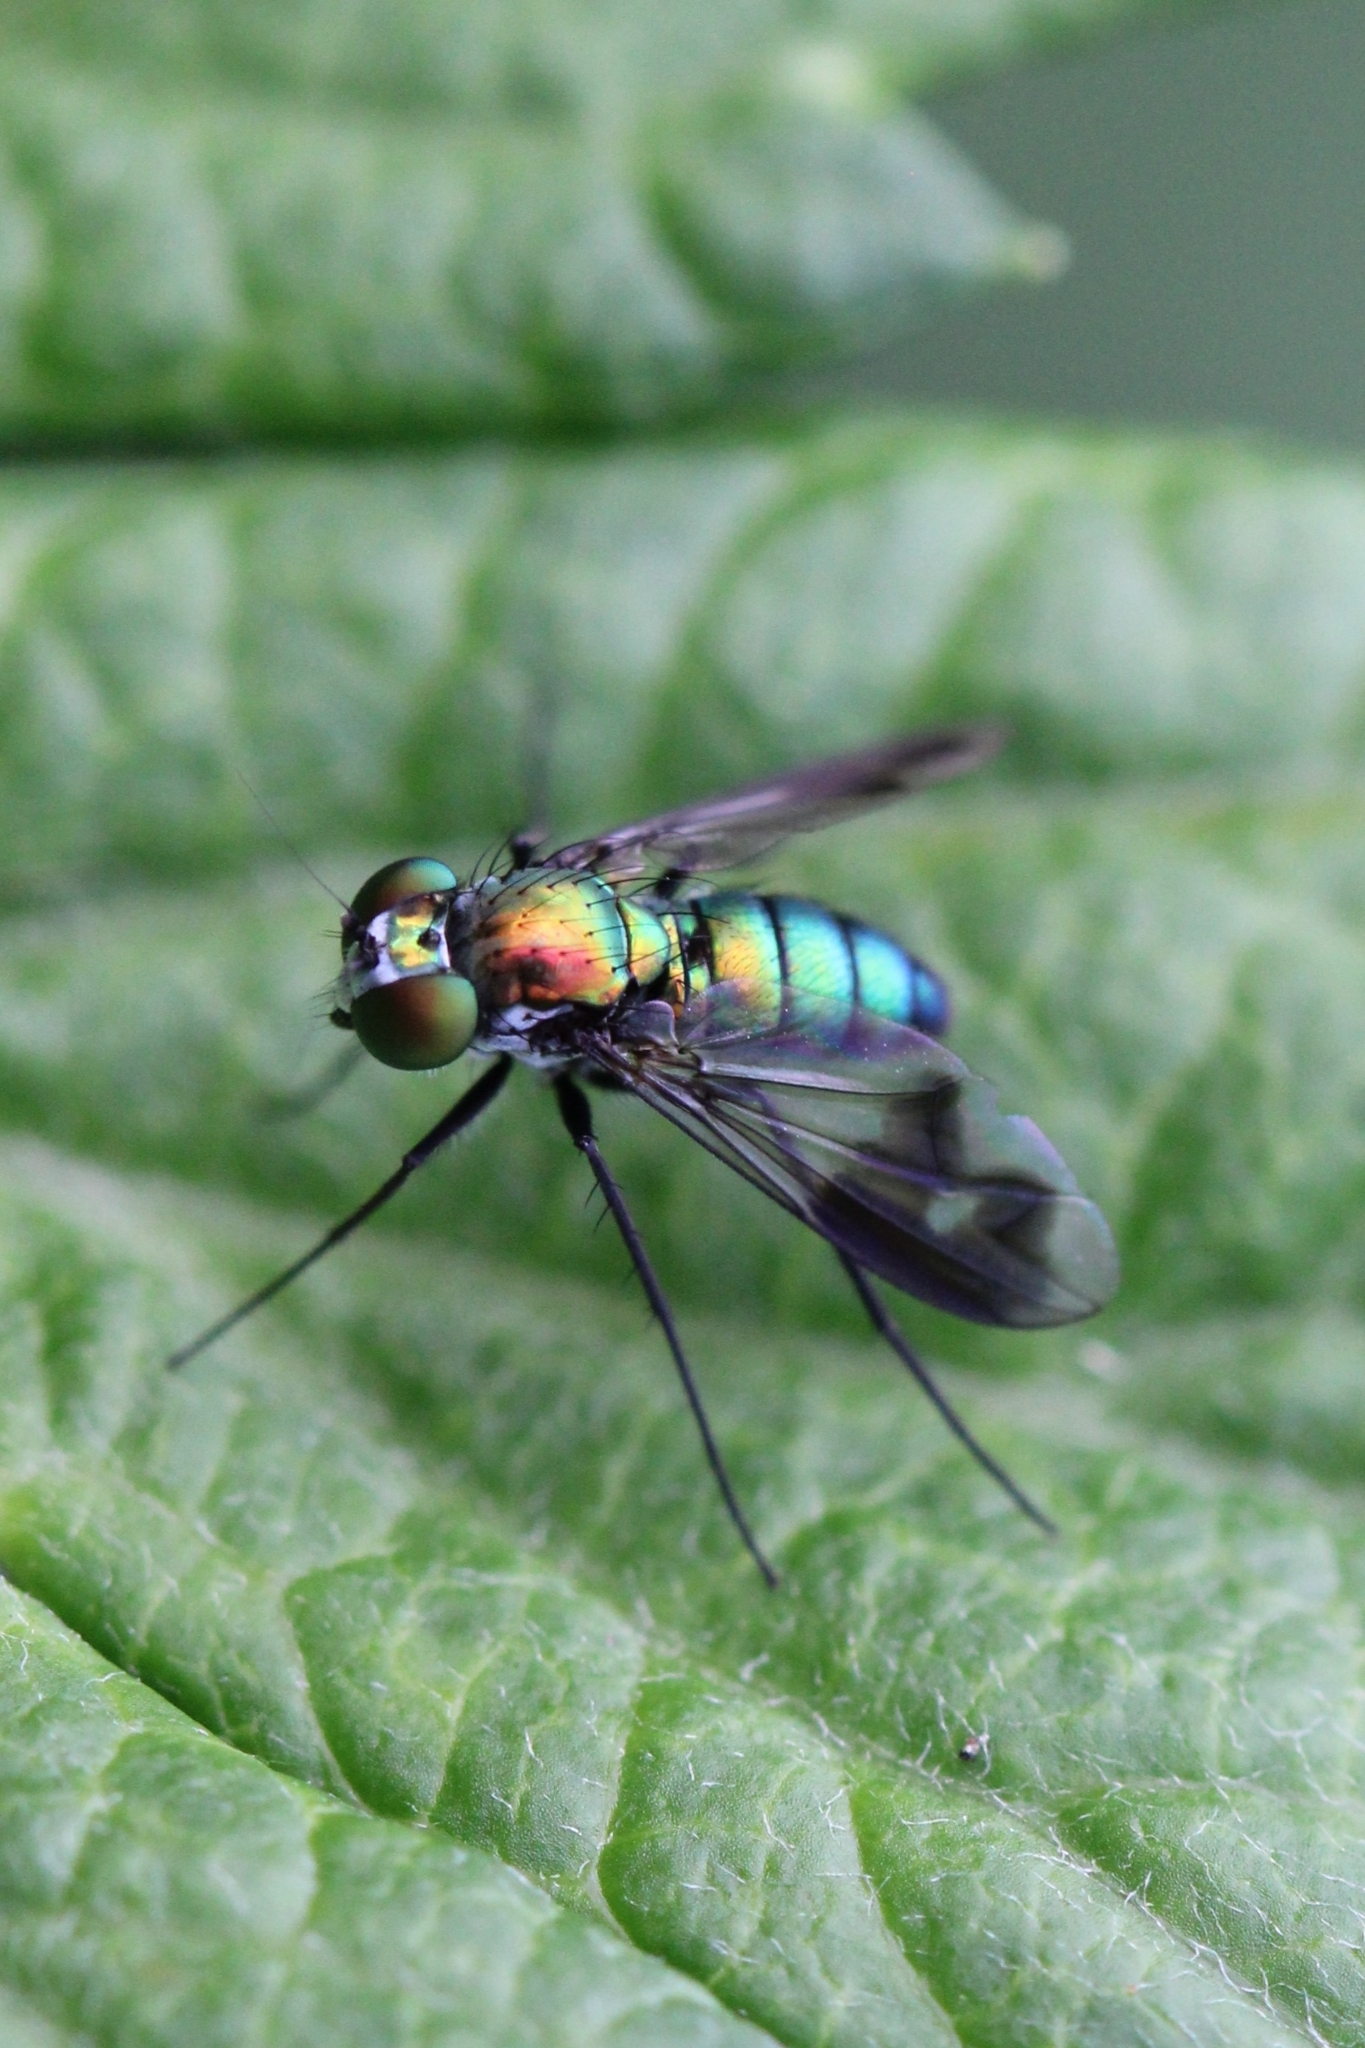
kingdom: Animalia
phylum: Arthropoda
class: Insecta
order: Diptera
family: Dolichopodidae
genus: Condylostylus
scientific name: Condylostylus patibulatus
